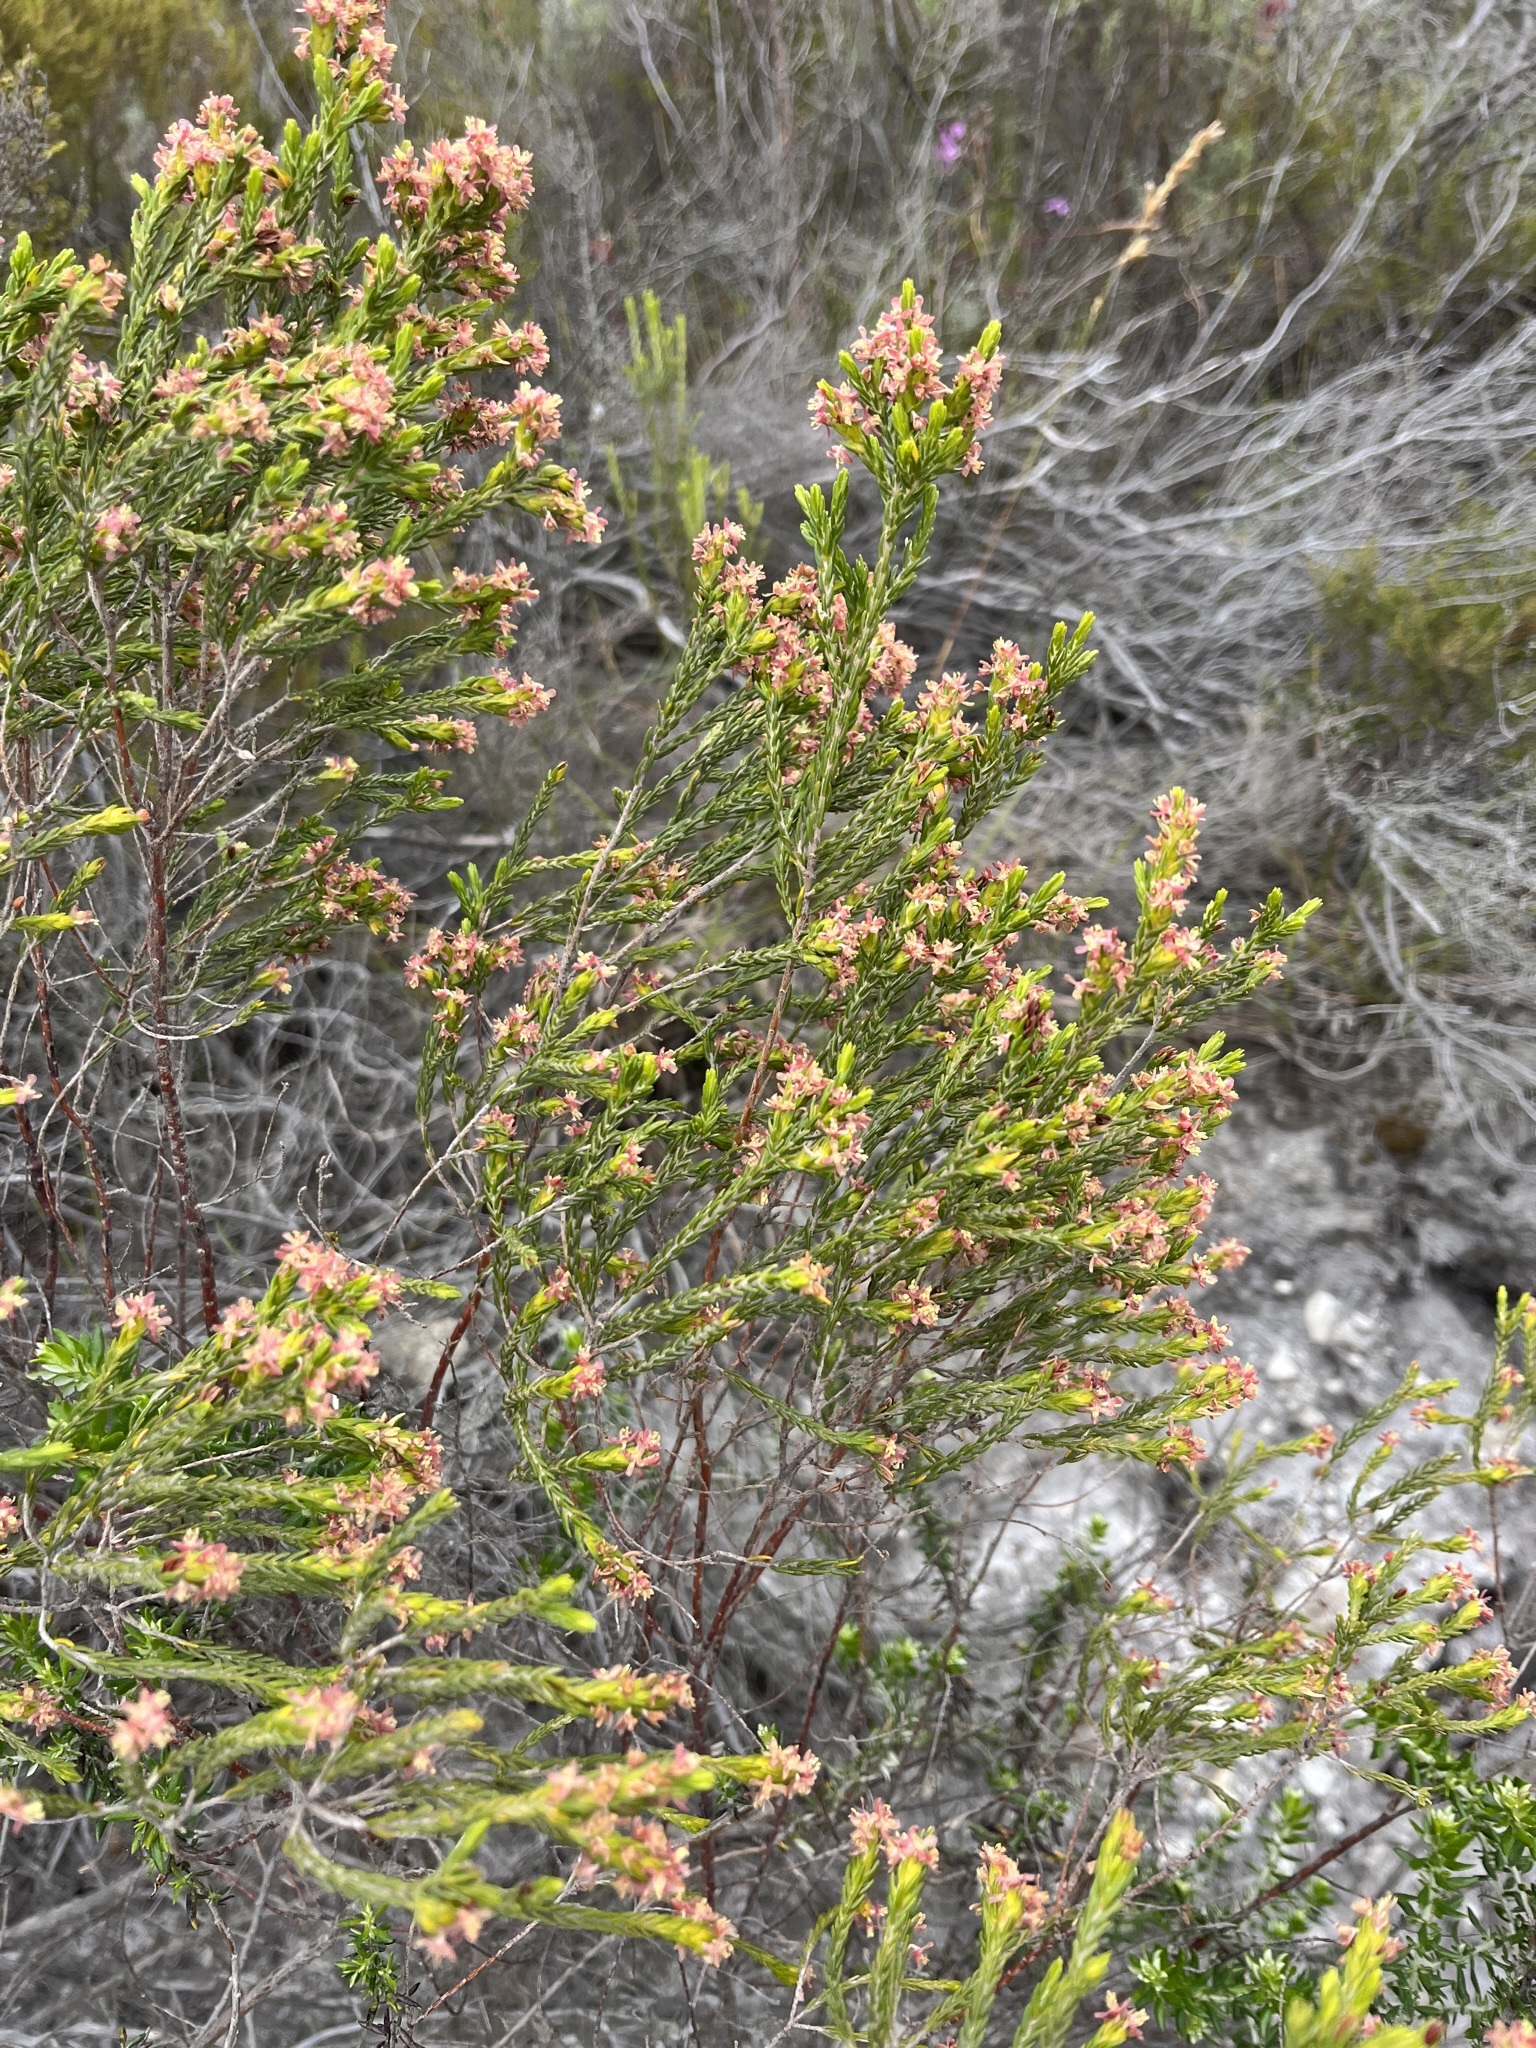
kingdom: Plantae
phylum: Tracheophyta
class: Magnoliopsida
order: Malvales
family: Thymelaeaceae
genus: Passerina
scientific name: Passerina corymbosa
